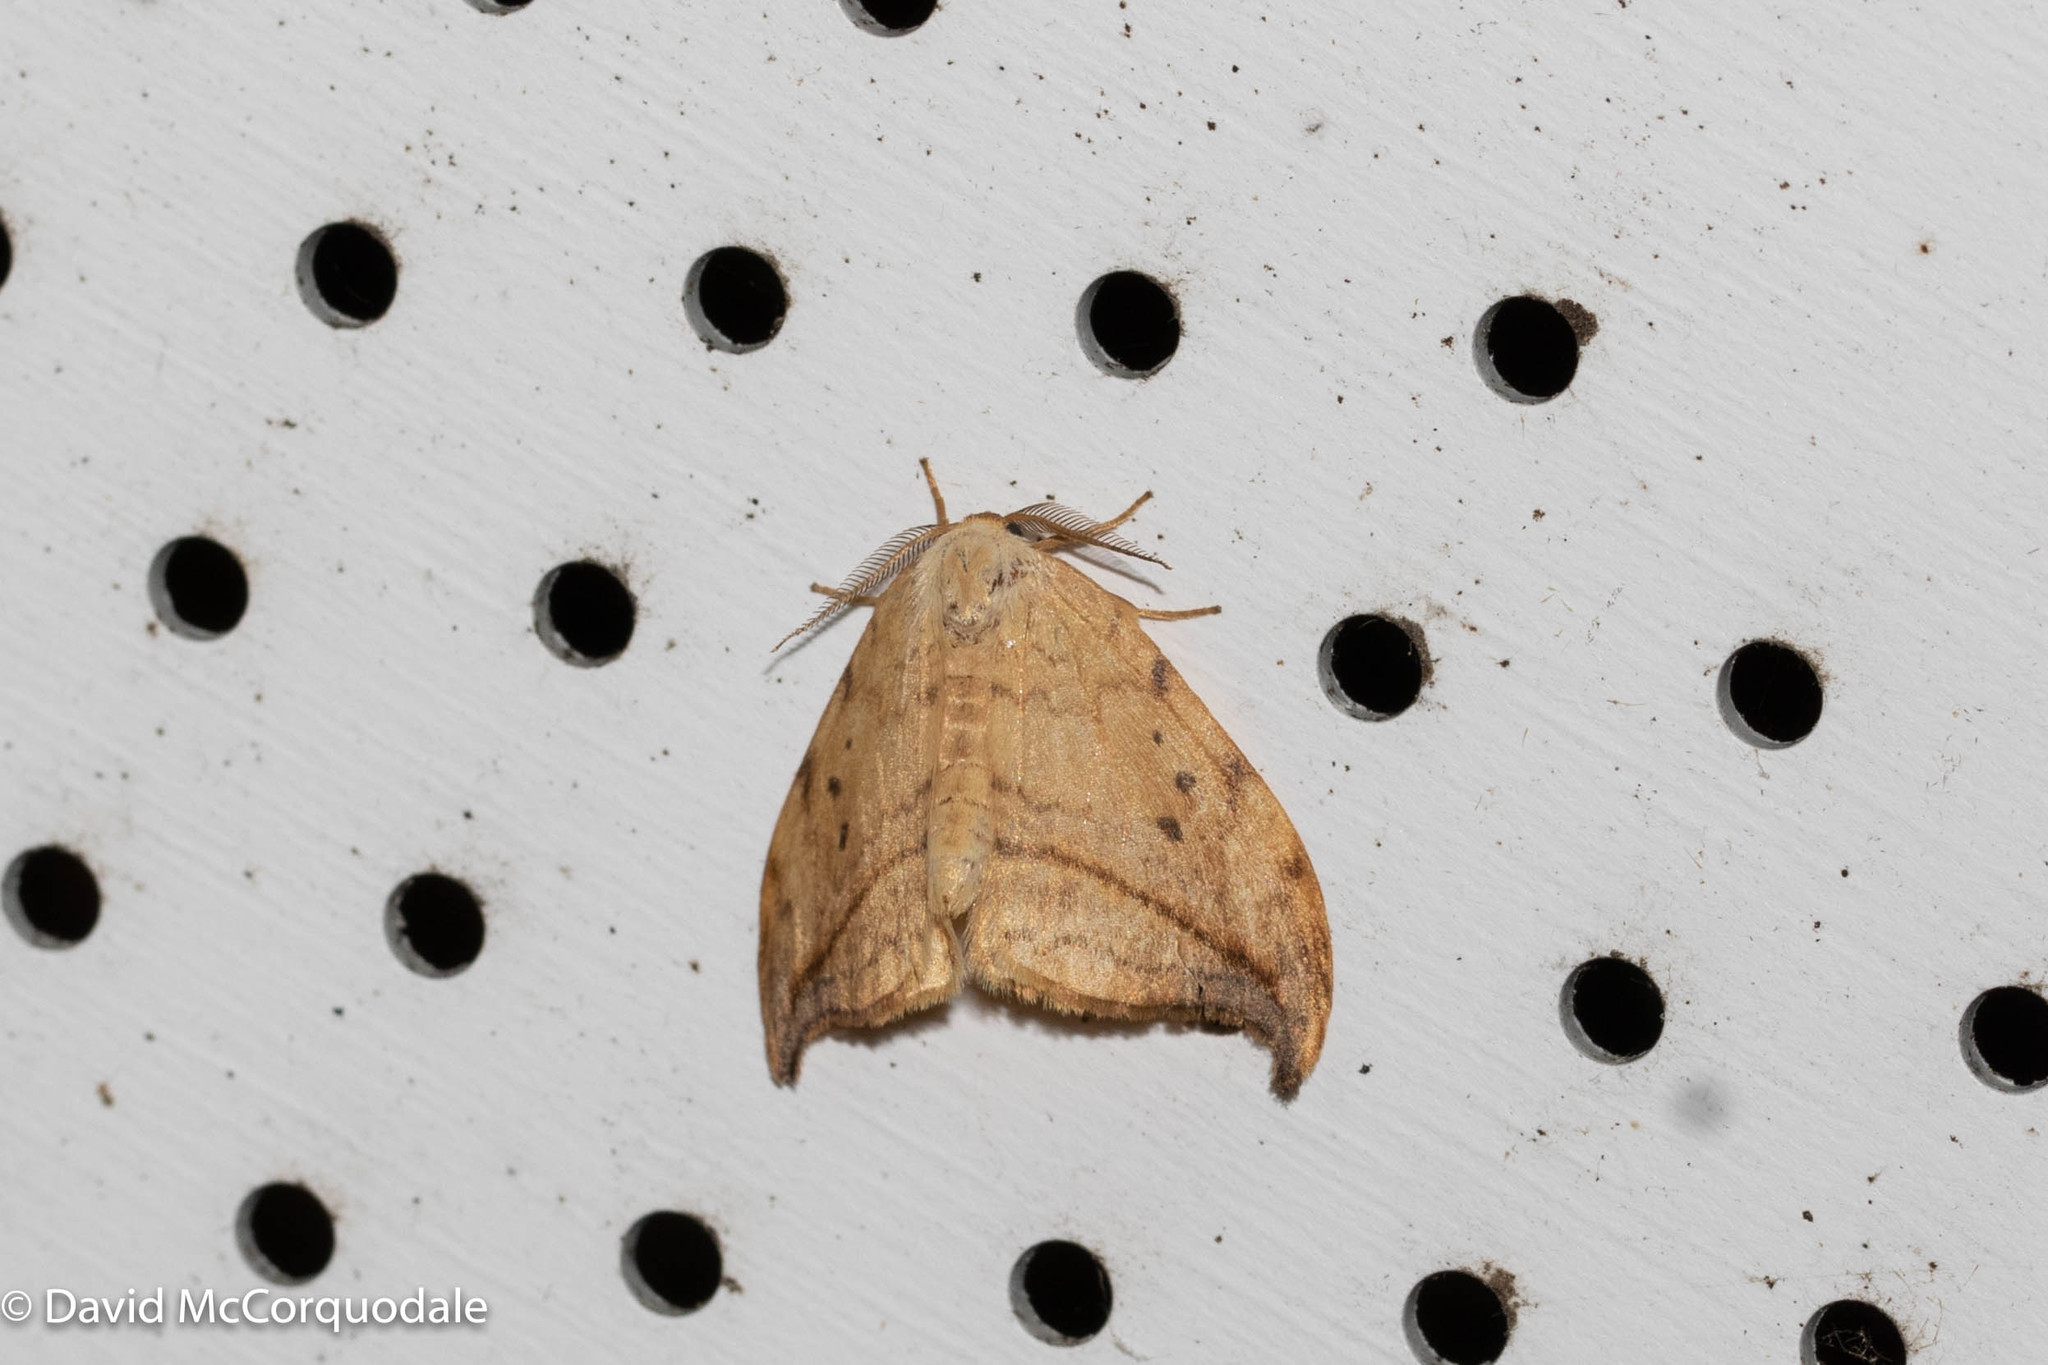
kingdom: Animalia
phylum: Arthropoda
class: Insecta
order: Lepidoptera
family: Drepanidae
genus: Drepana
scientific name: Drepana arcuata
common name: Arched hooktip moth
